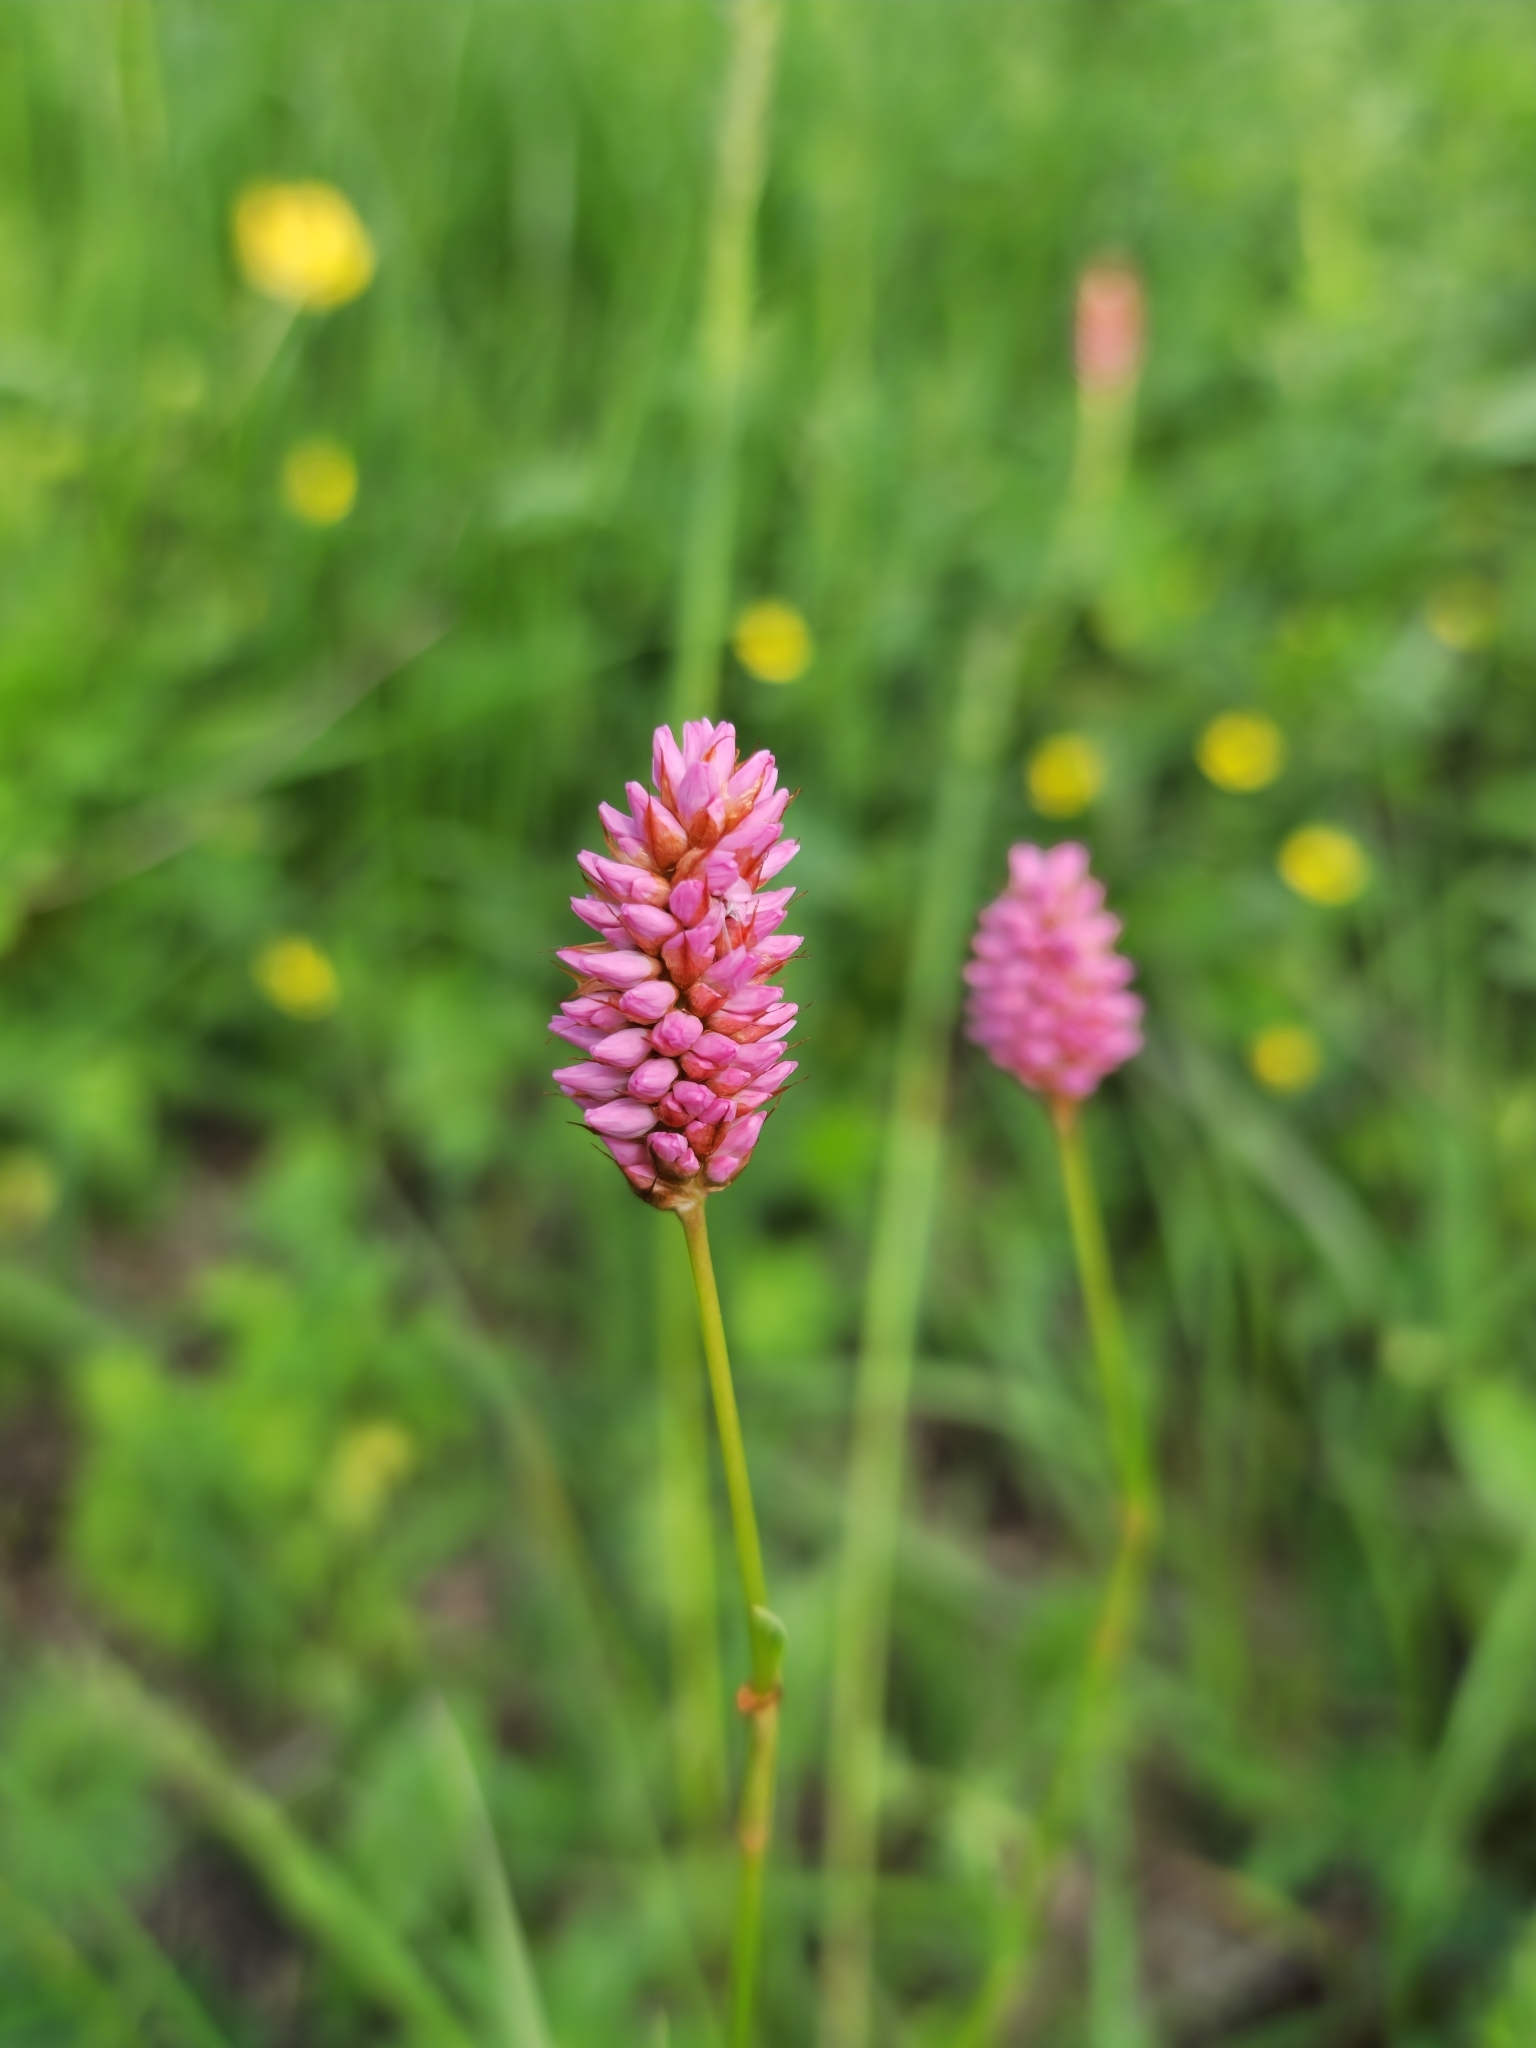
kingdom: Plantae
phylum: Tracheophyta
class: Magnoliopsida
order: Caryophyllales
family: Polygonaceae
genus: Bistorta
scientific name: Bistorta carnea
